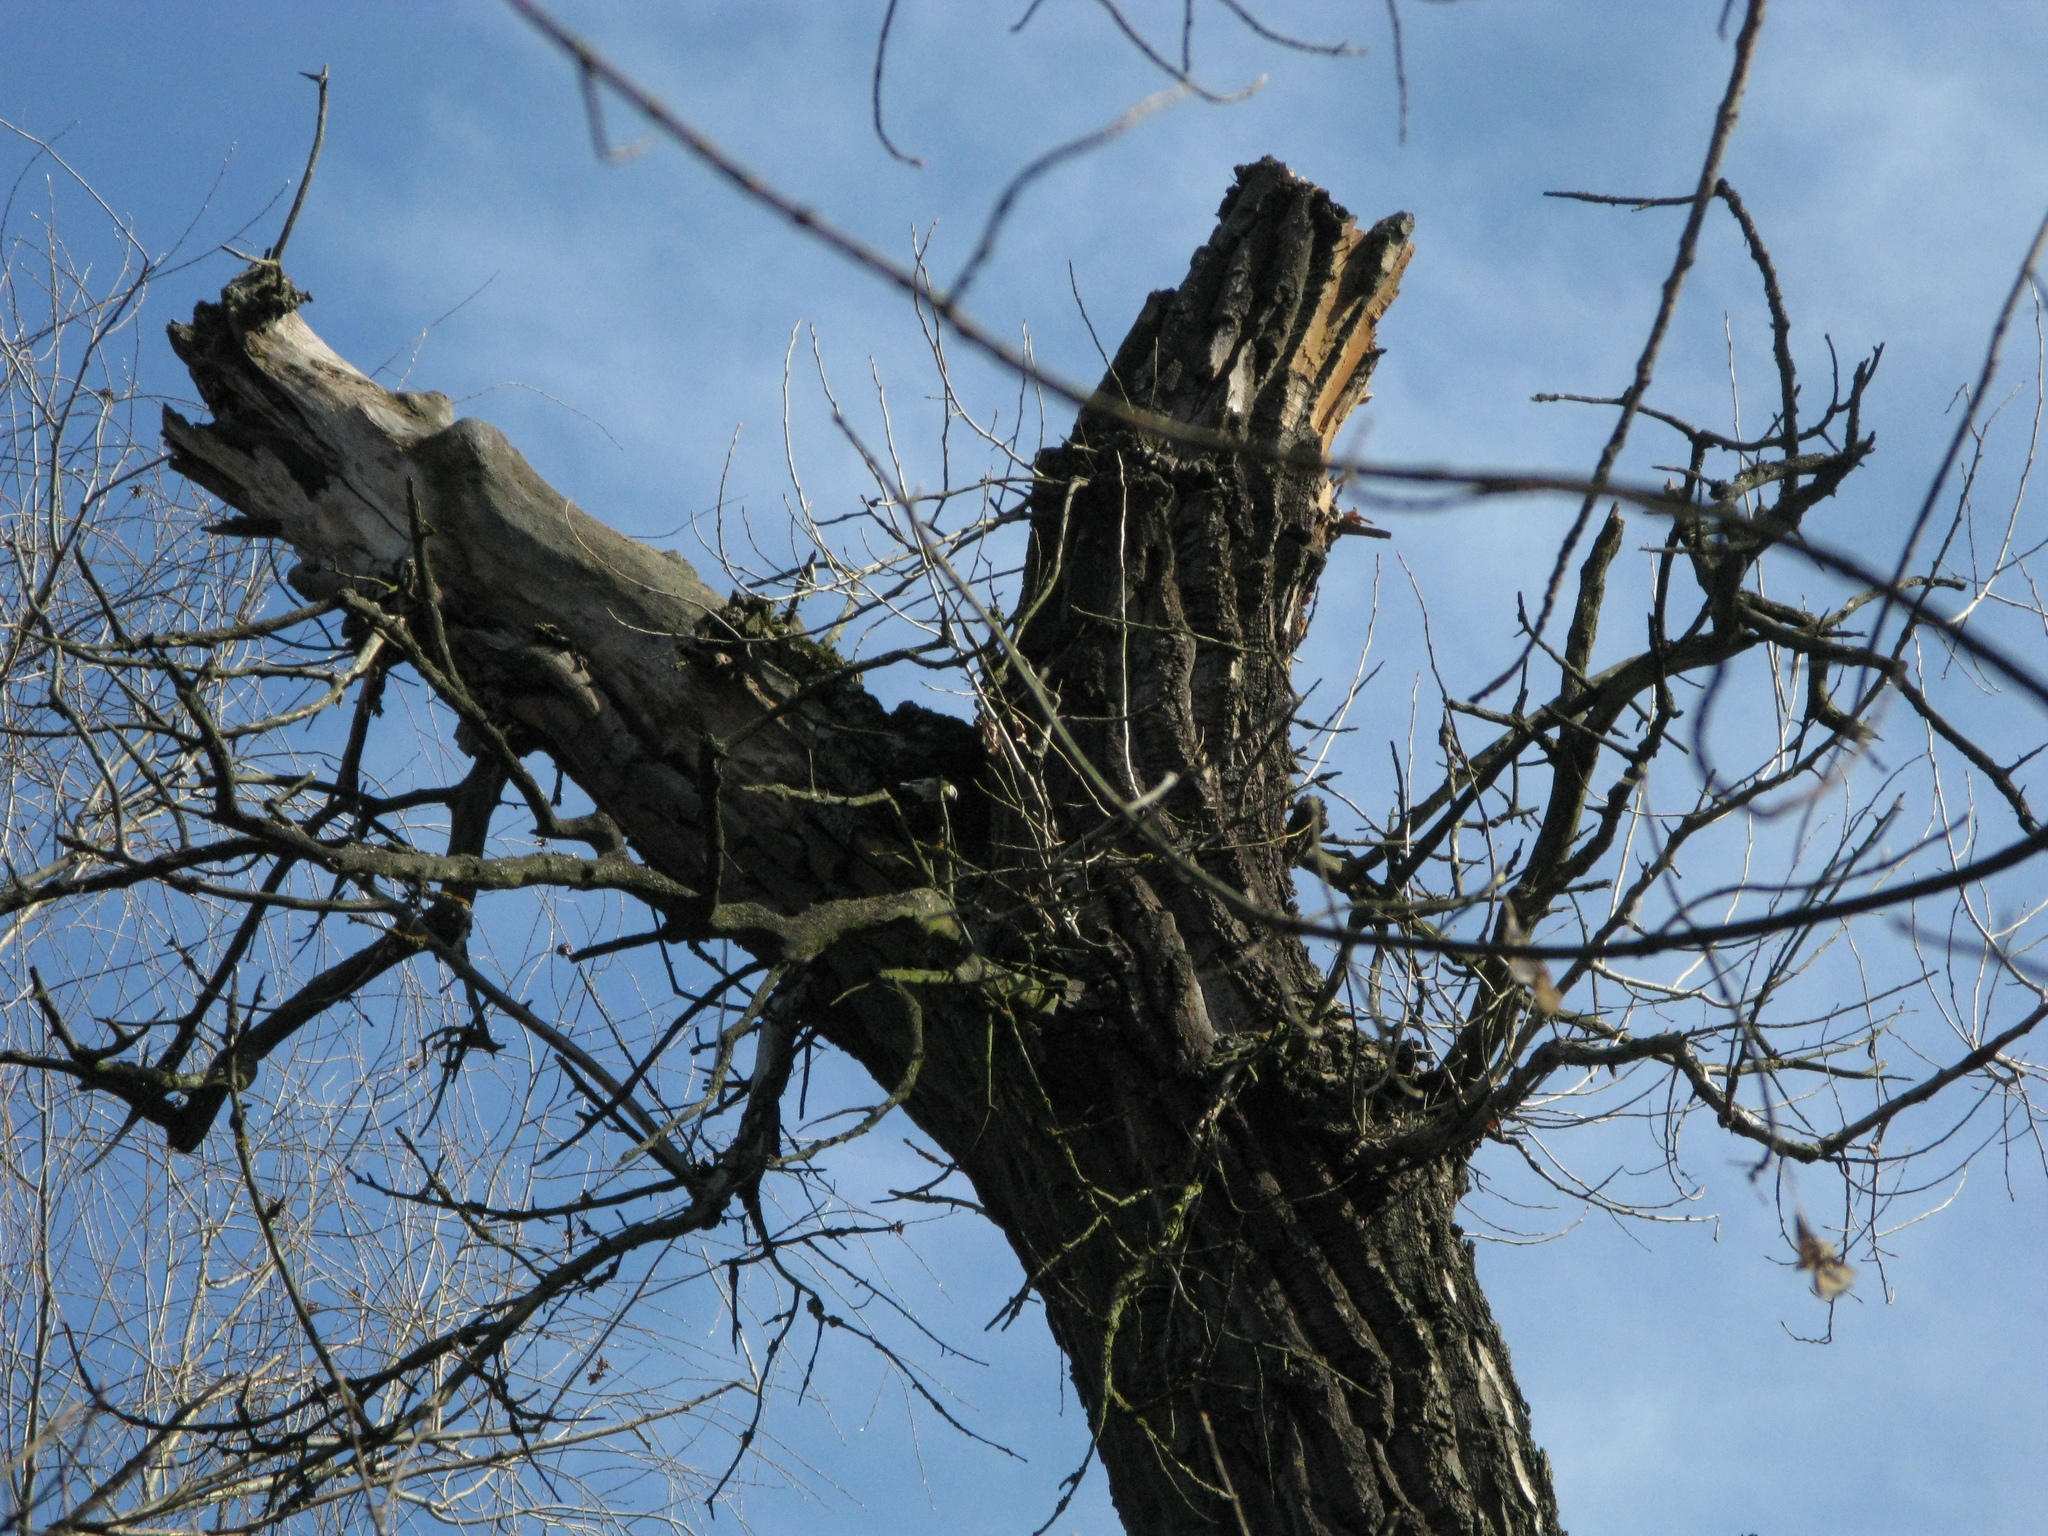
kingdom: Animalia
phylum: Chordata
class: Aves
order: Passeriformes
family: Paridae
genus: Cyanistes
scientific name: Cyanistes caeruleus
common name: Eurasian blue tit
